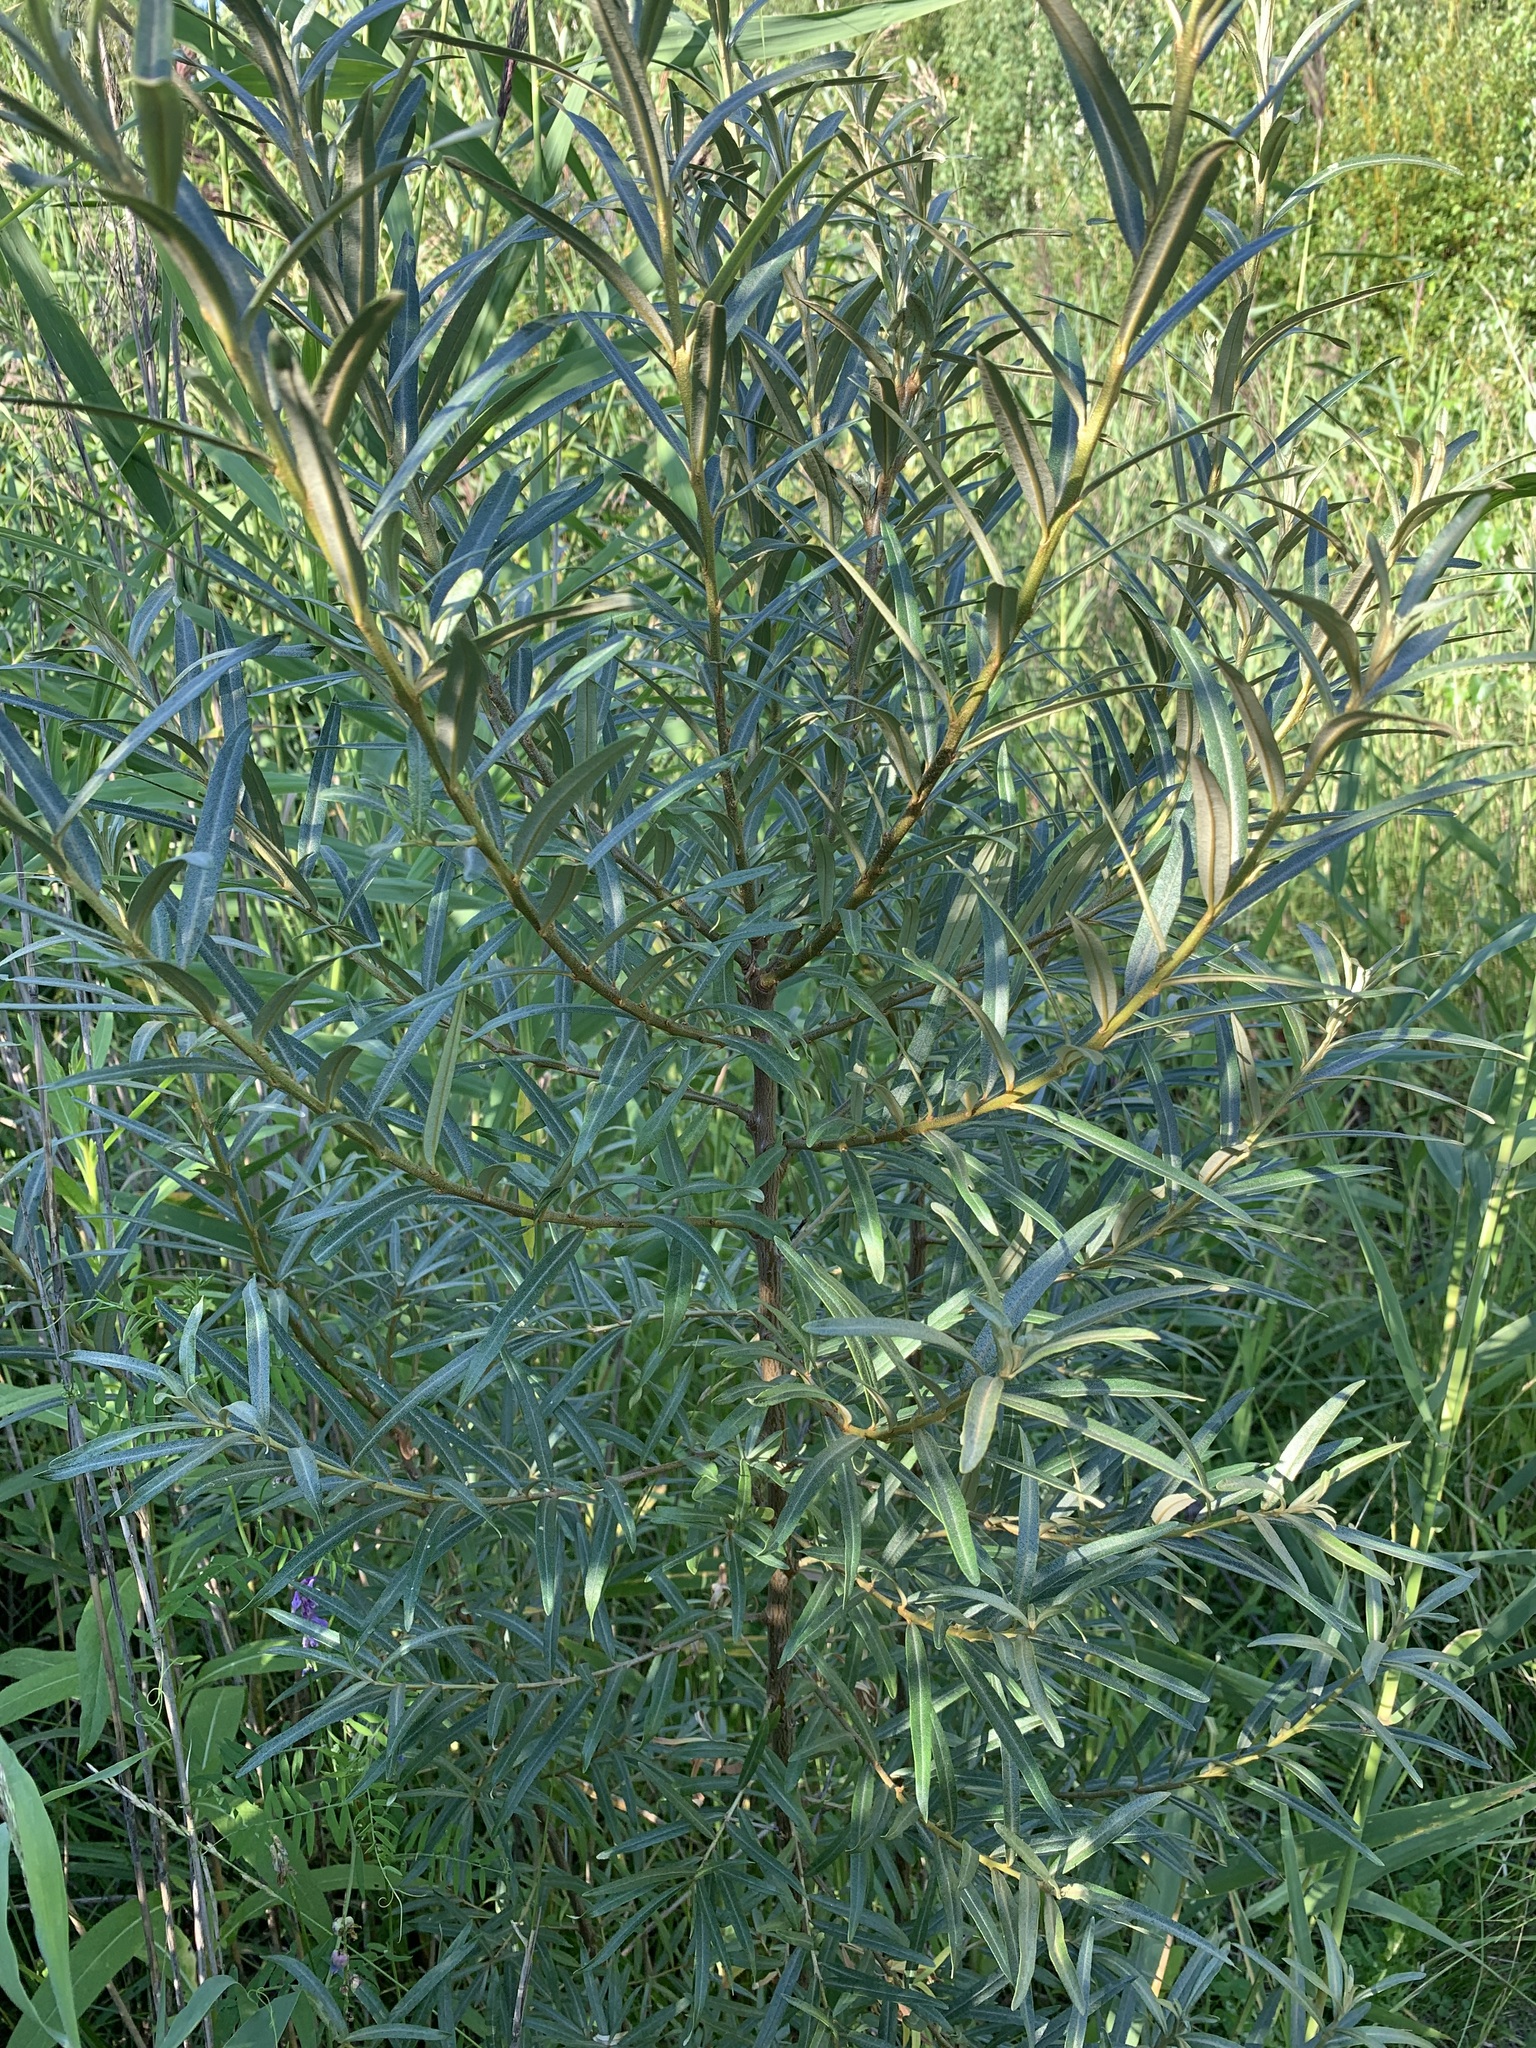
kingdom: Plantae
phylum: Tracheophyta
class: Magnoliopsida
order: Rosales
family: Elaeagnaceae
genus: Hippophae
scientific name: Hippophae rhamnoides
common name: Sea-buckthorn
